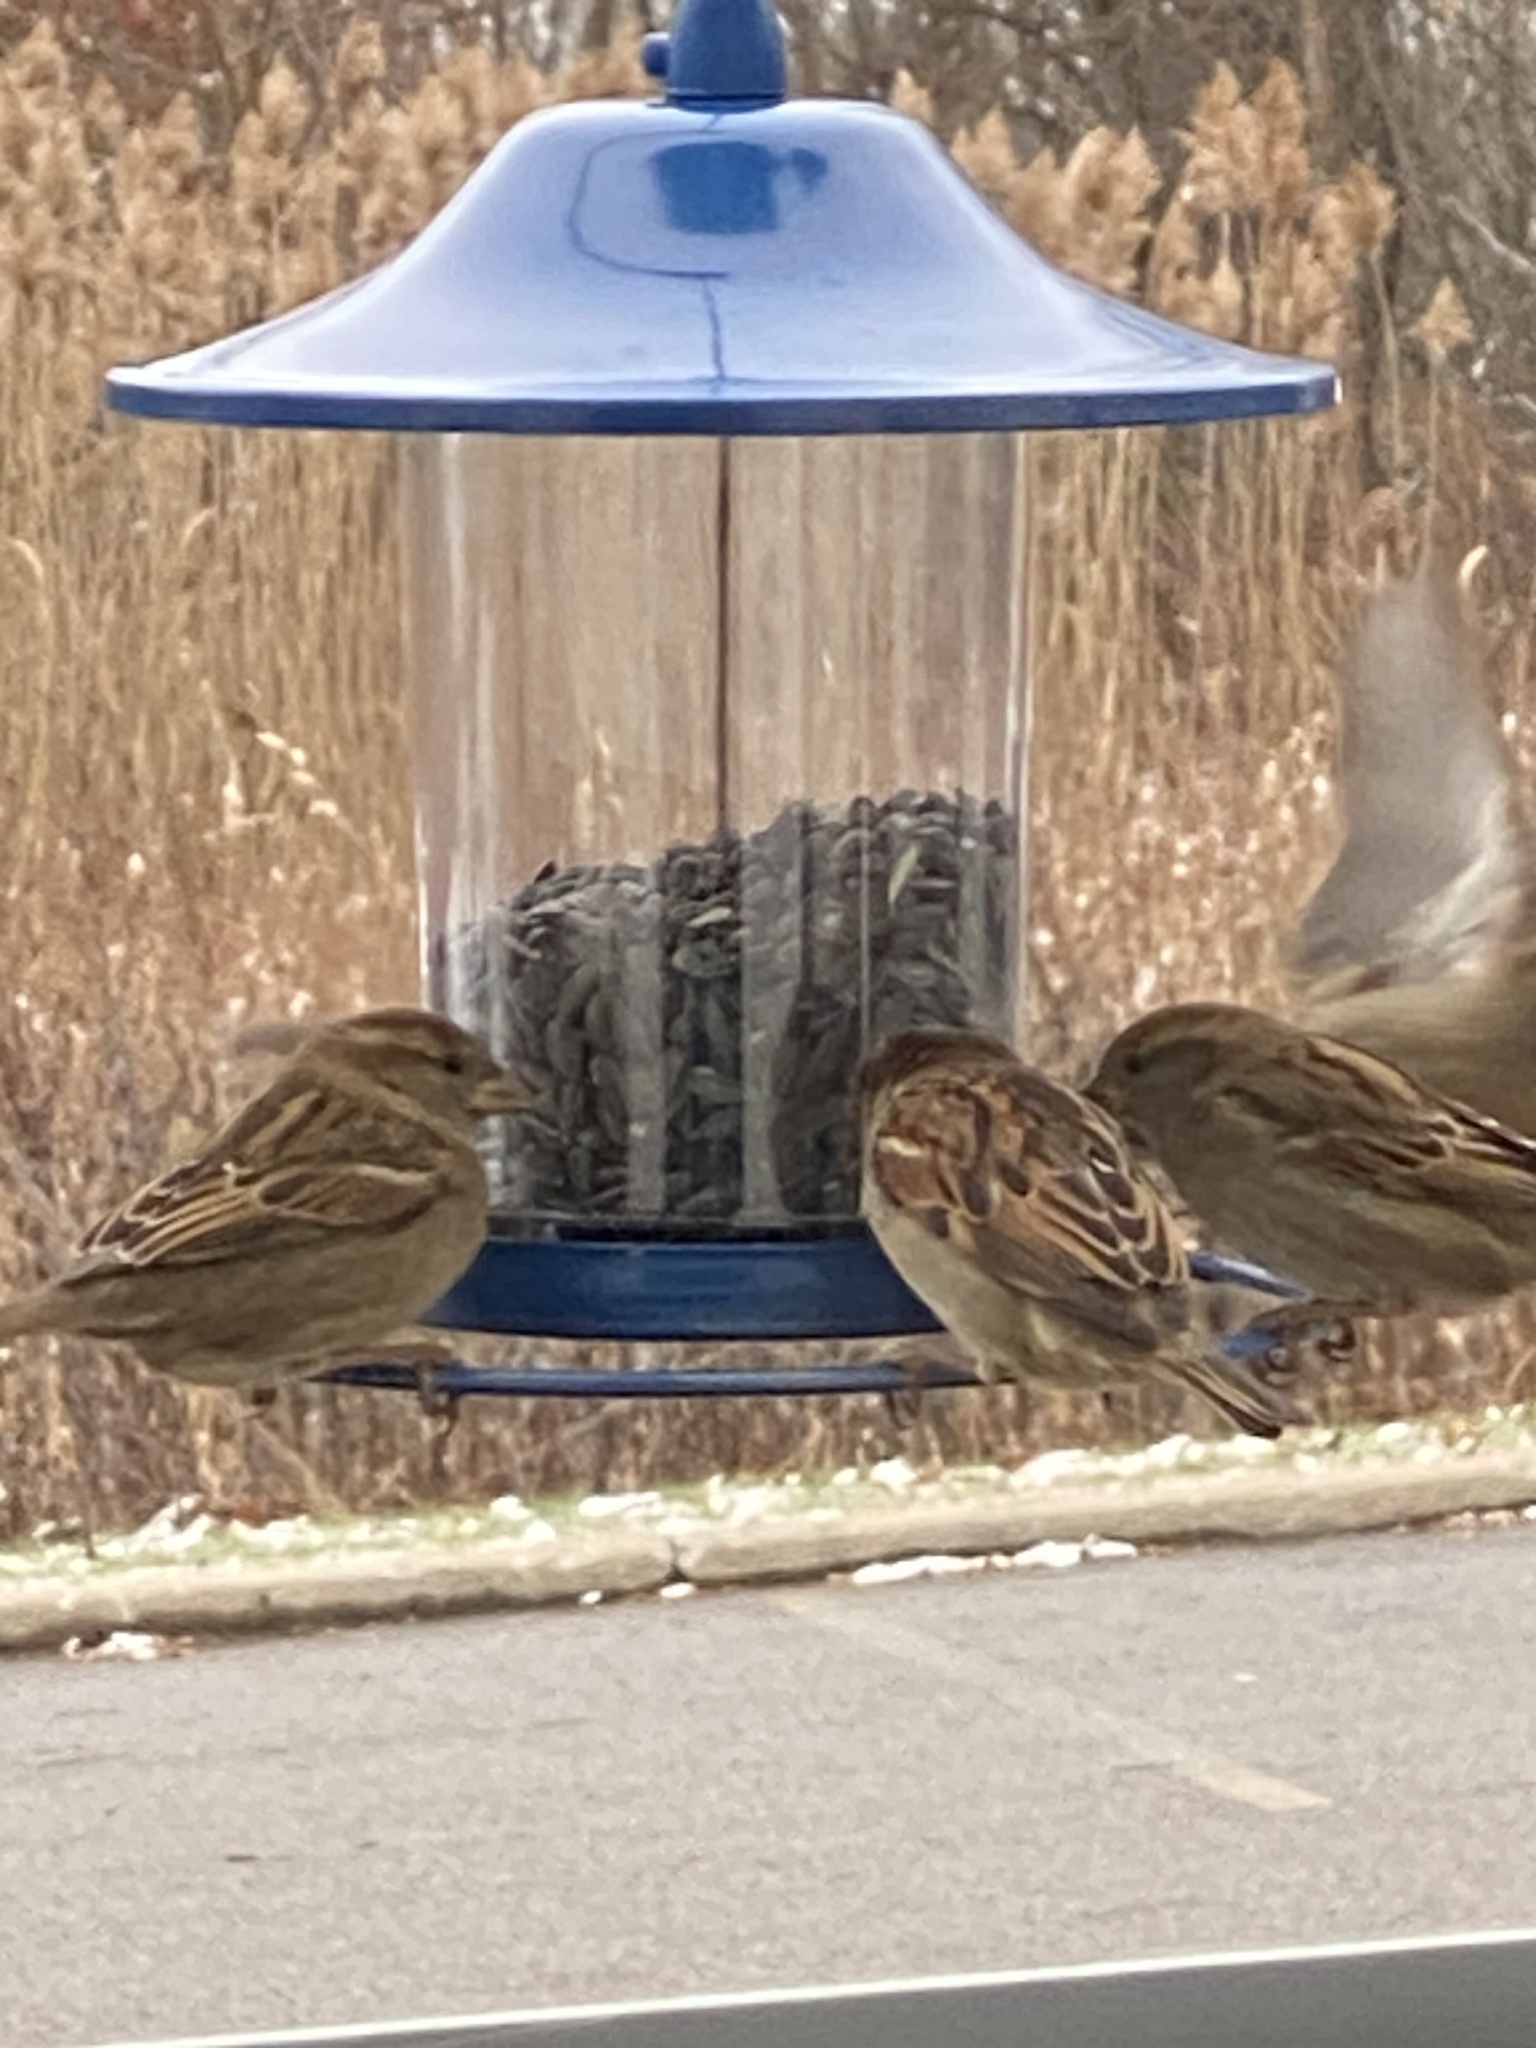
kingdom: Animalia
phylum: Chordata
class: Aves
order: Passeriformes
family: Passeridae
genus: Passer
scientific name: Passer domesticus
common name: House sparrow
